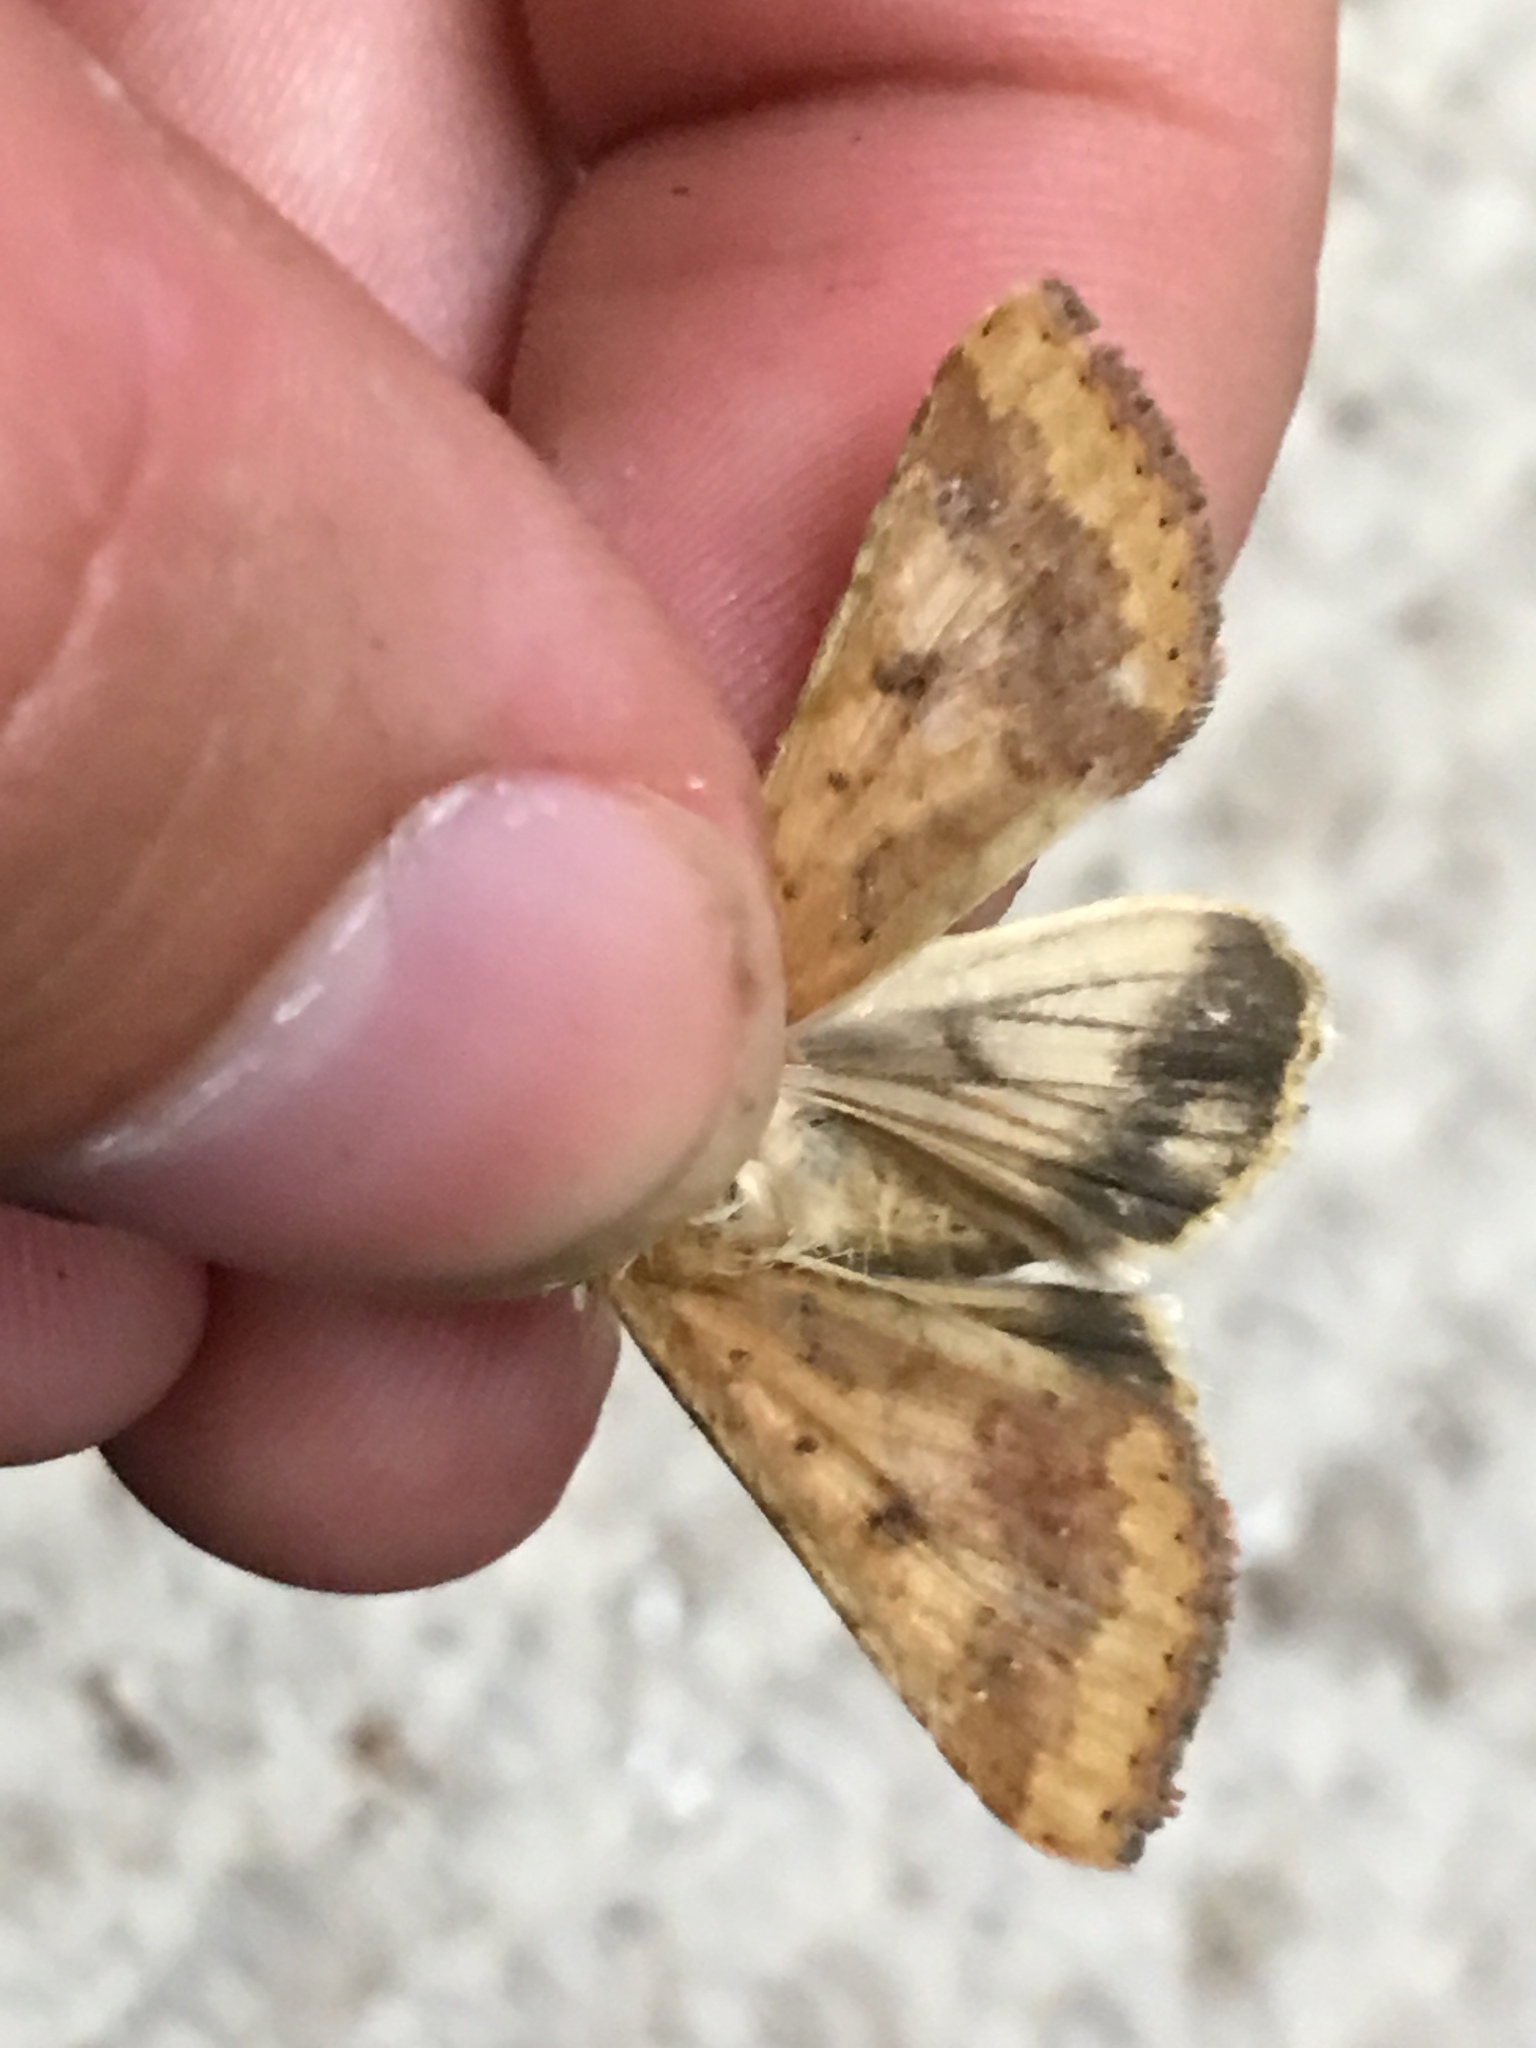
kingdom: Animalia
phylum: Arthropoda
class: Insecta
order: Lepidoptera
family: Noctuidae
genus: Helicoverpa
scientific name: Helicoverpa zea
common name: Bollworm
